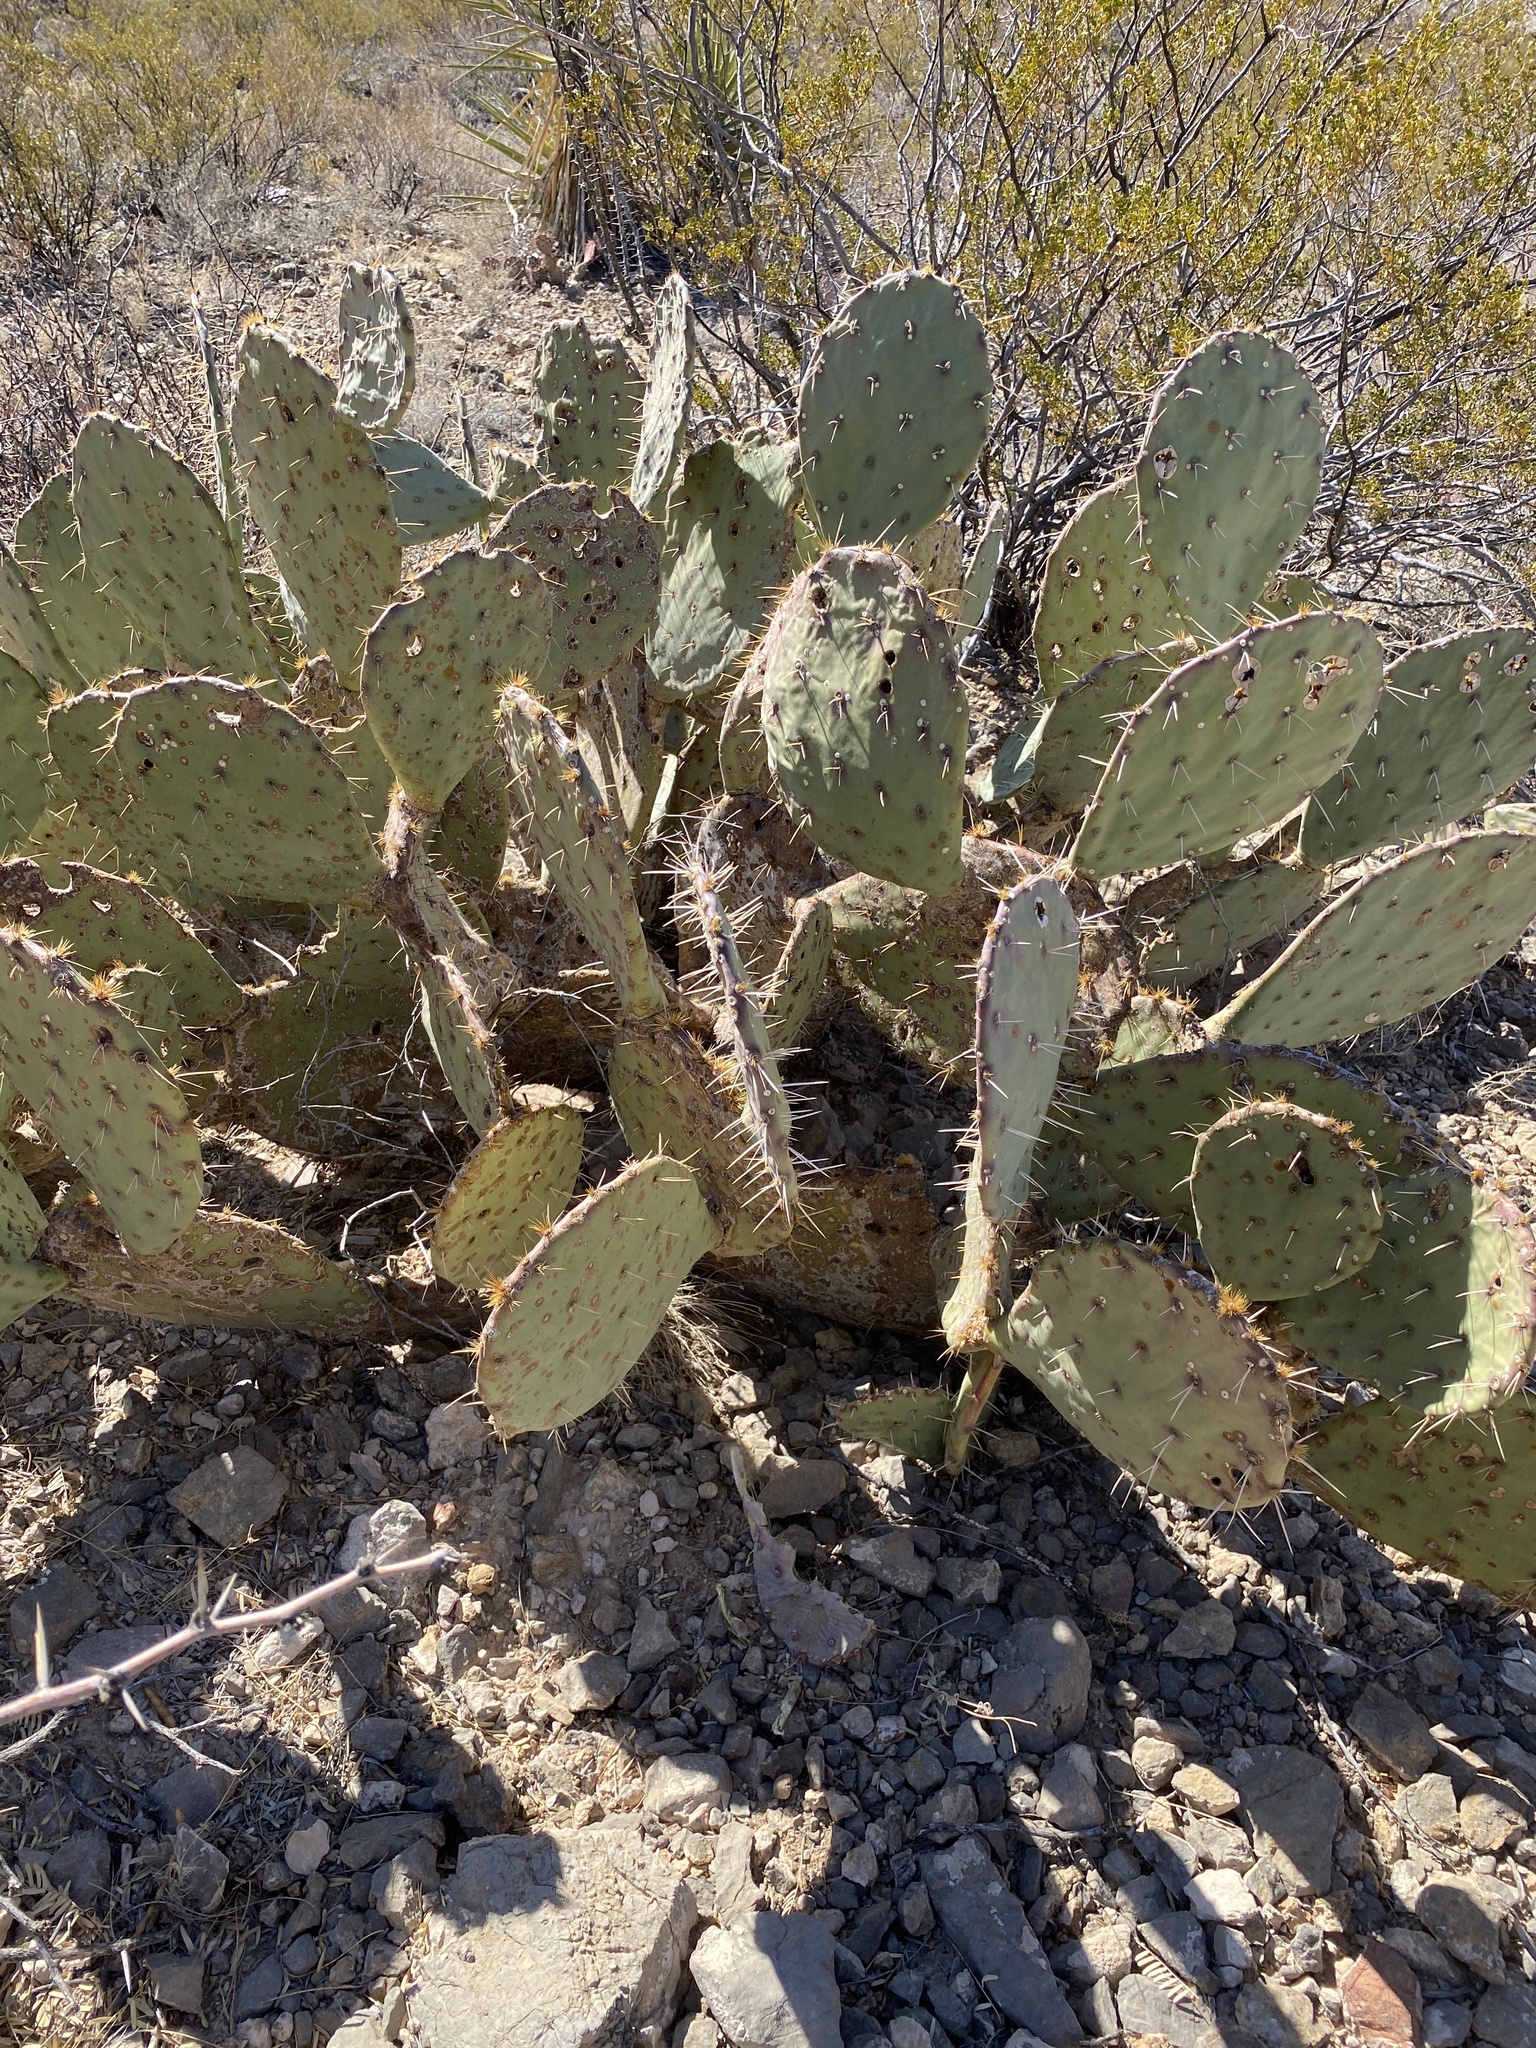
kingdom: Plantae
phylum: Tracheophyta
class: Magnoliopsida
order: Caryophyllales
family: Cactaceae
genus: Opuntia
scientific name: Opuntia engelmannii
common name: Cactus-apple
